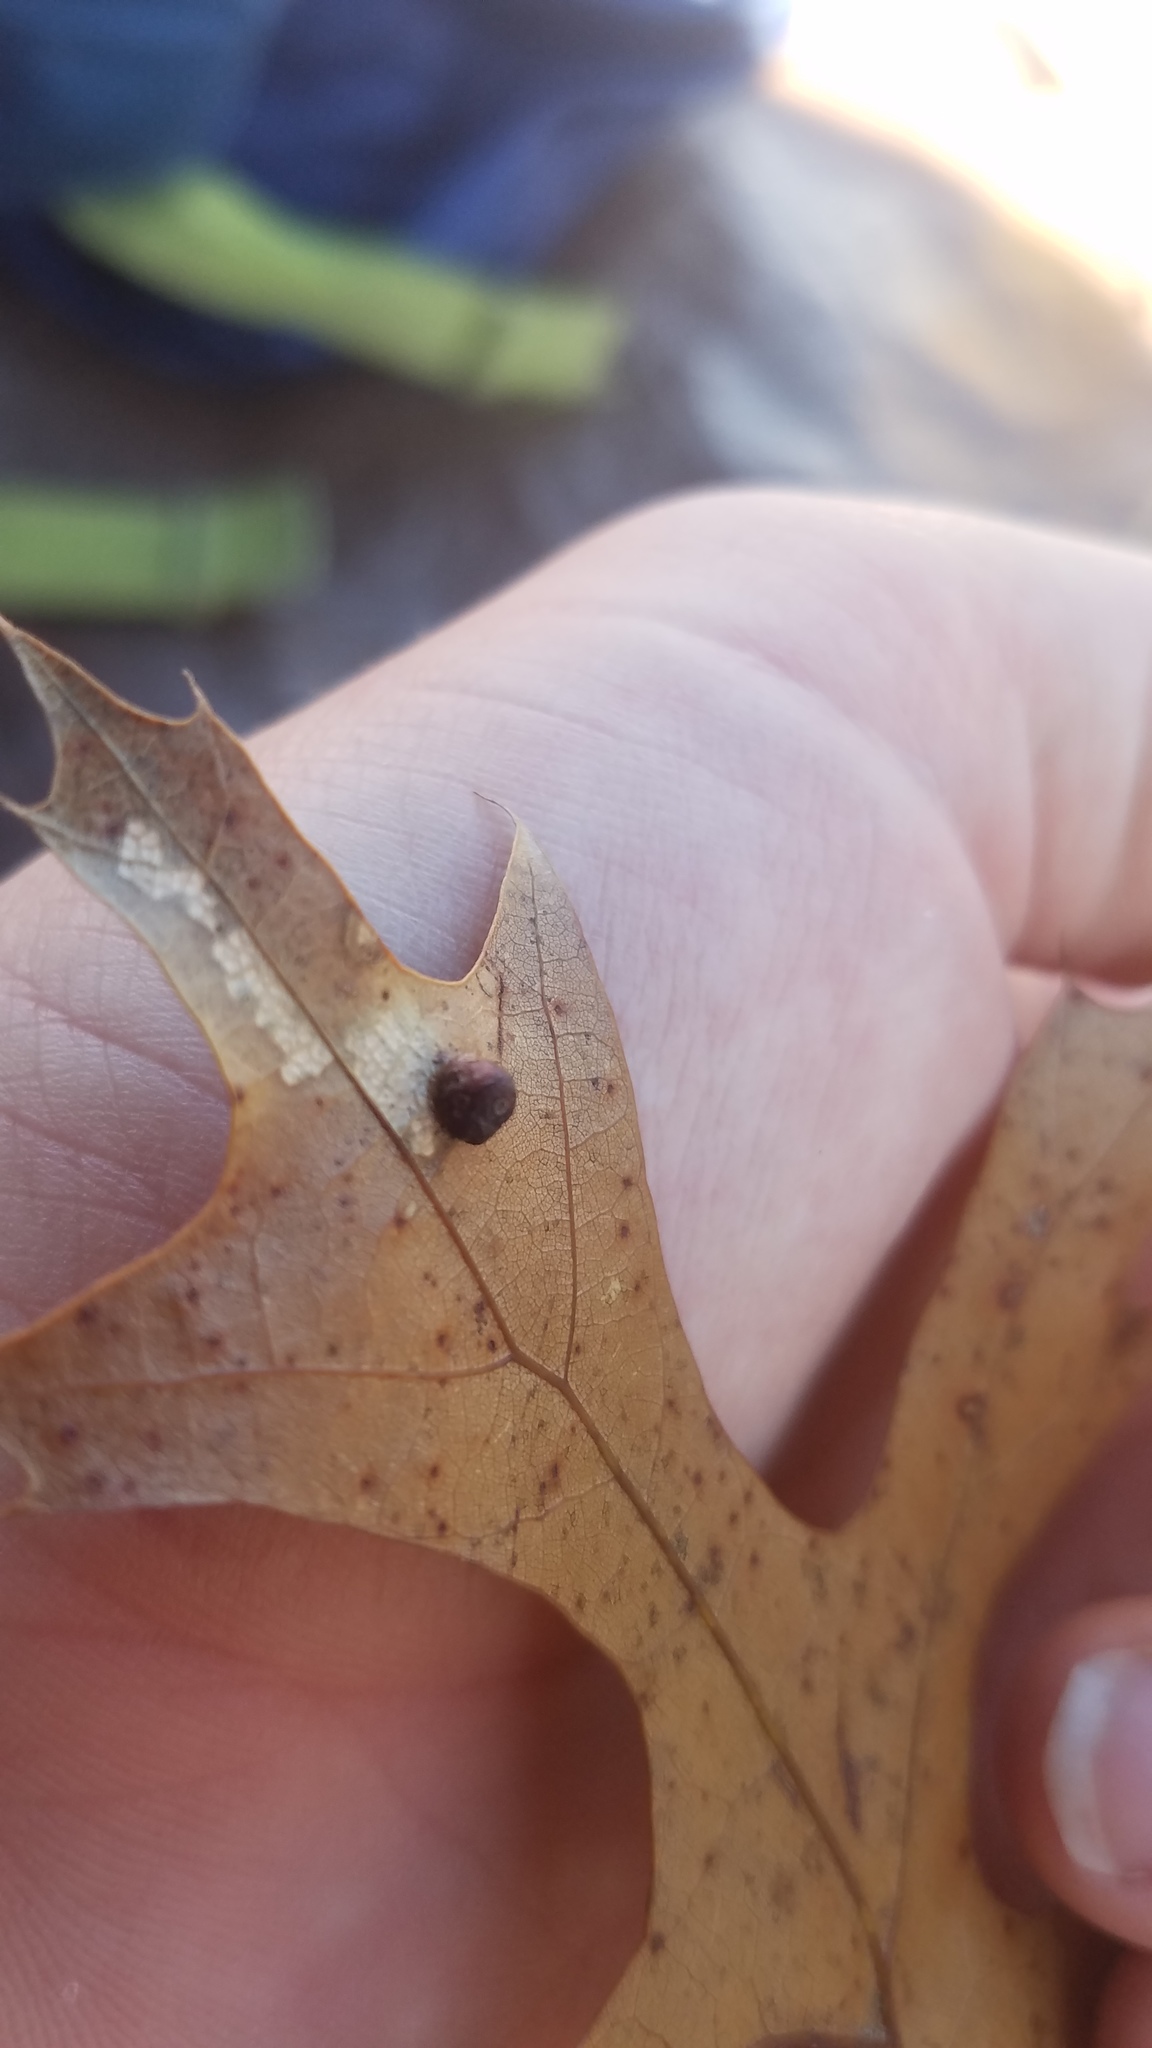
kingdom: Animalia
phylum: Arthropoda
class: Insecta
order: Diptera
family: Cecidomyiidae
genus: Polystepha
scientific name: Polystepha globosa
